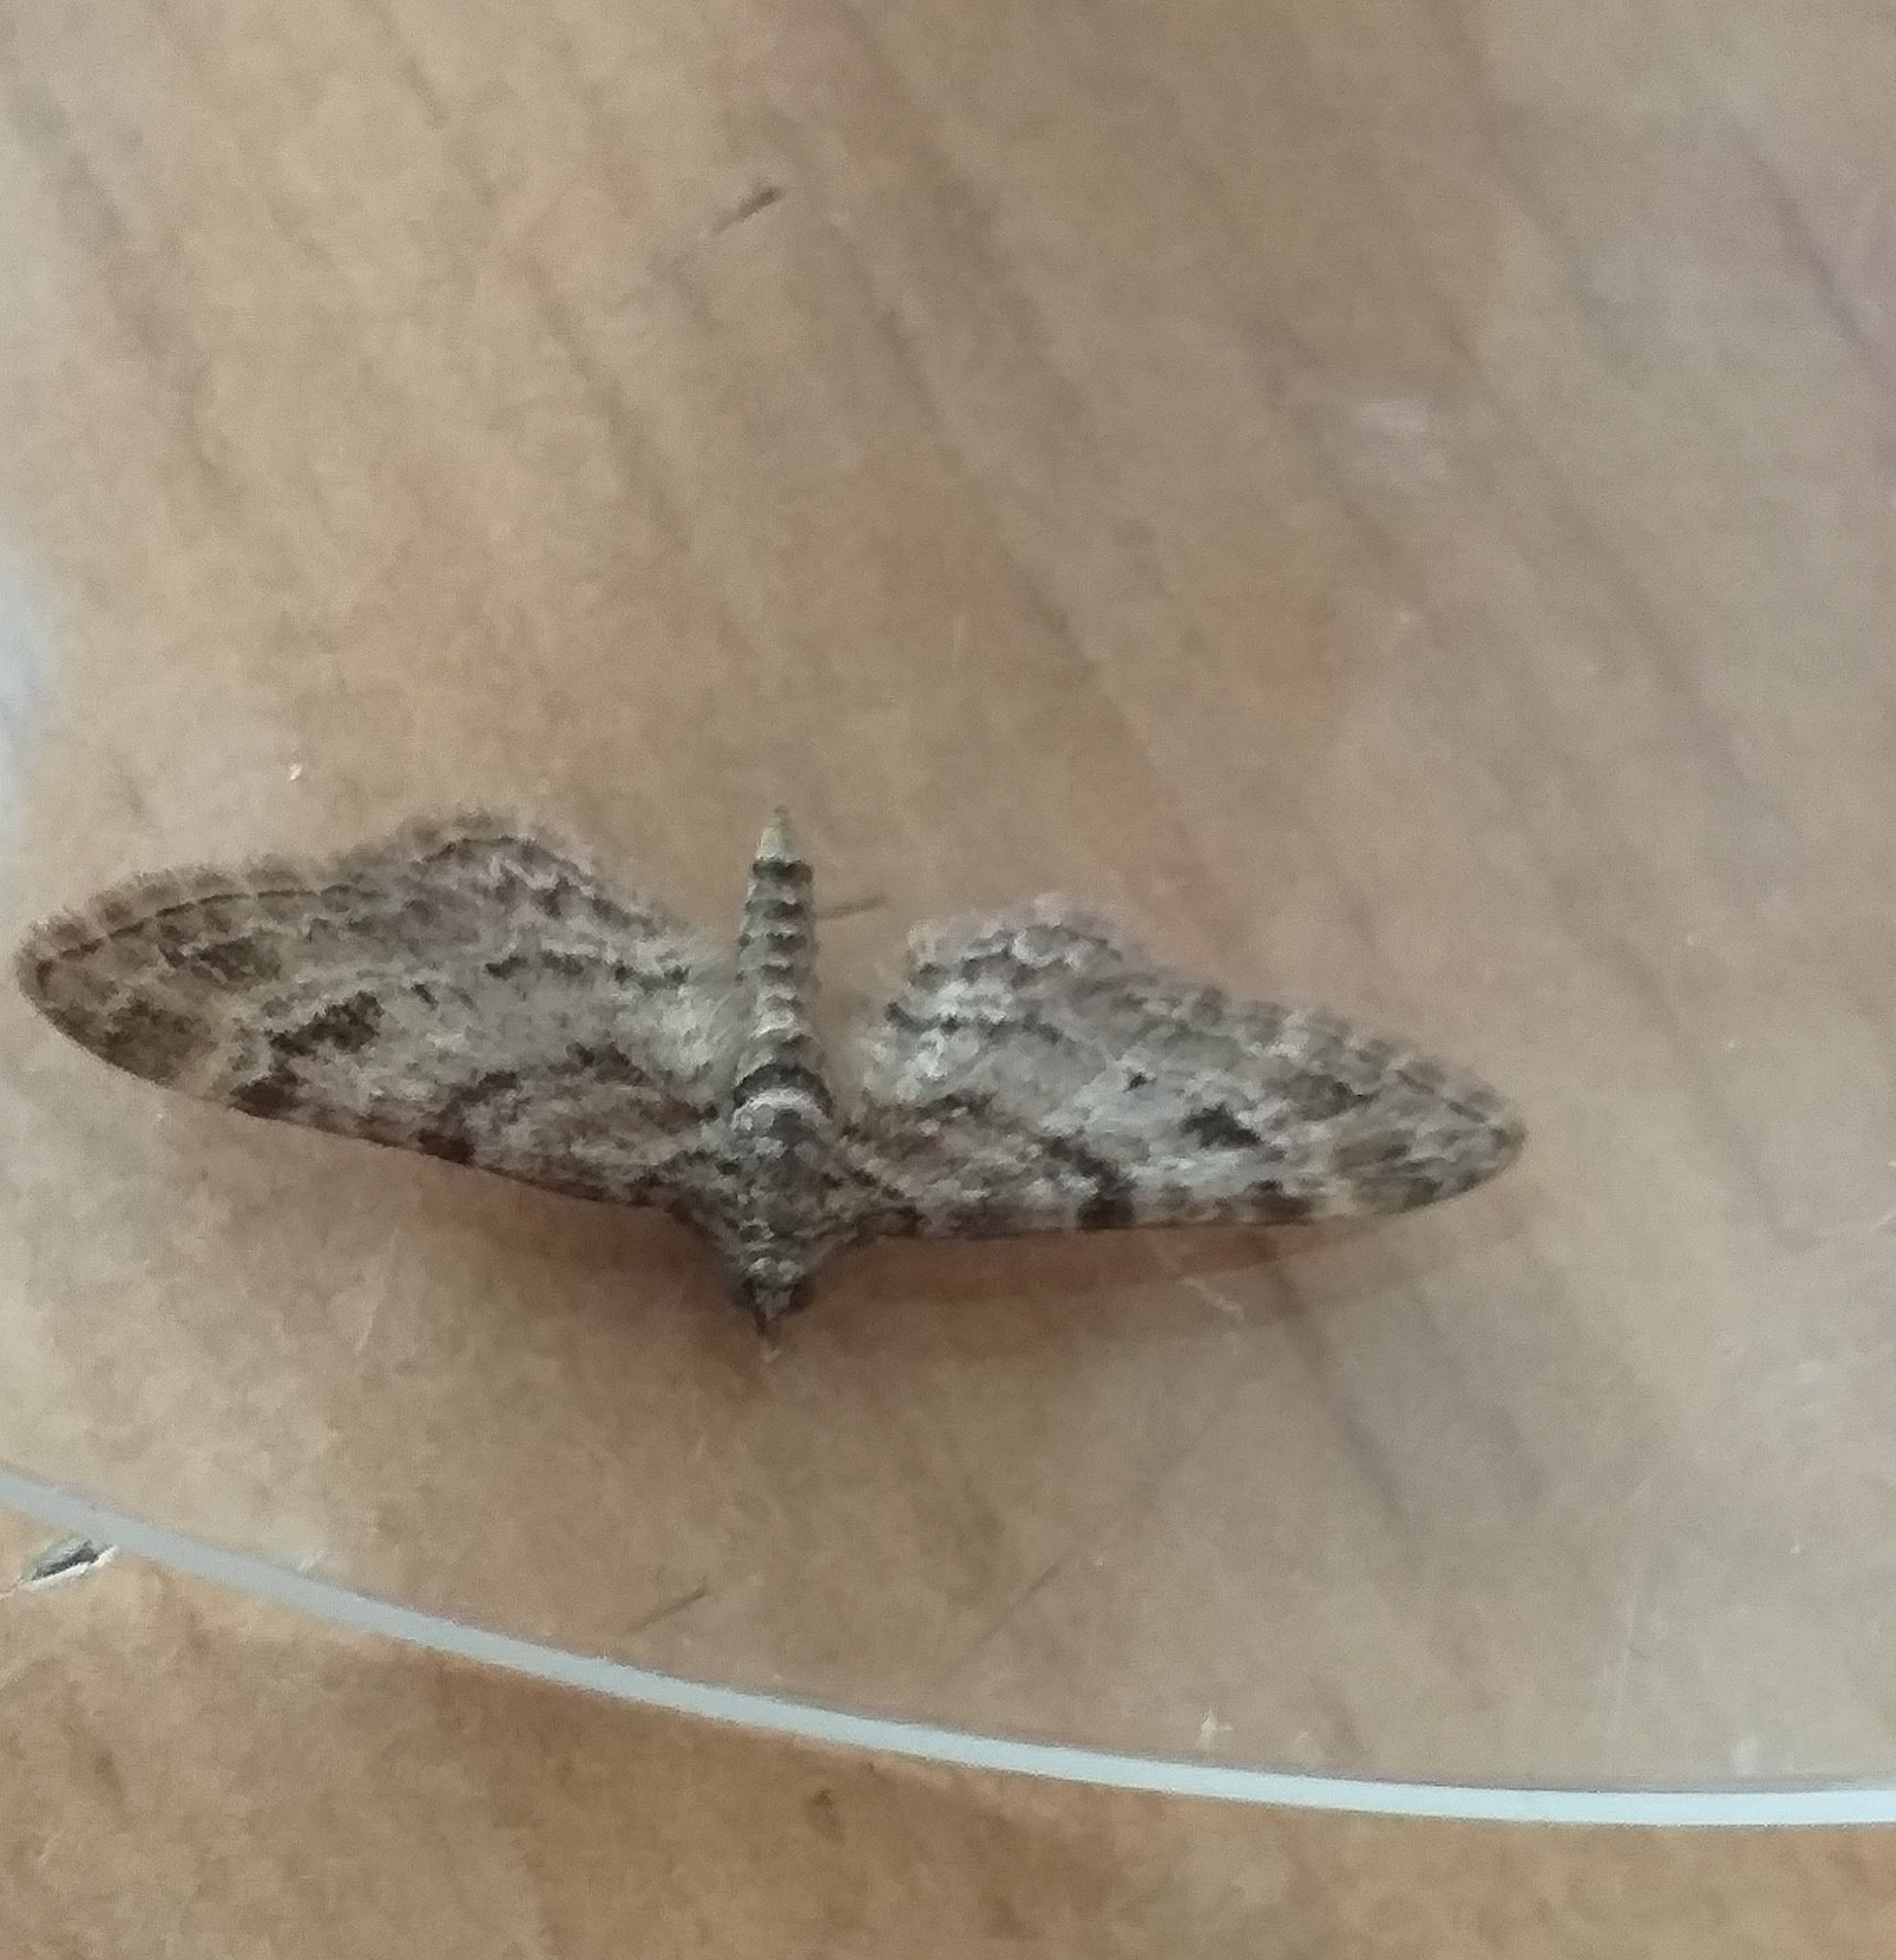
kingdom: Animalia
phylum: Arthropoda
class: Insecta
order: Lepidoptera
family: Geometridae
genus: Gymnoscelis
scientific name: Gymnoscelis rufifasciata
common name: Double-striped pug
